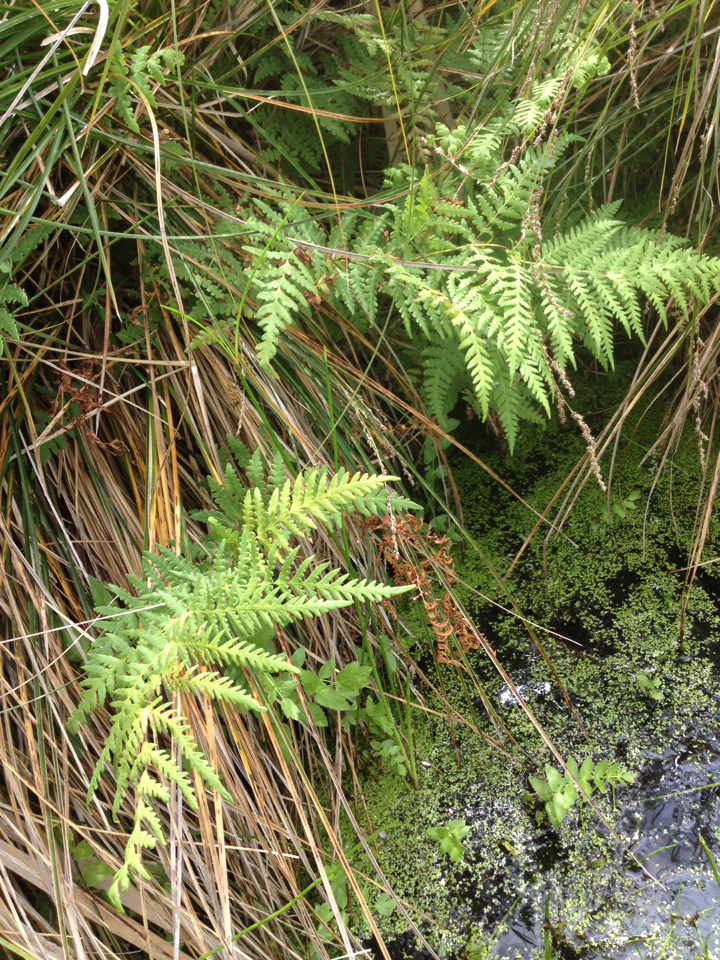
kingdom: Plantae
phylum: Tracheophyta
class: Polypodiopsida
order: Polypodiales
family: Dennstaedtiaceae
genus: Histiopteris
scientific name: Histiopteris incisa
